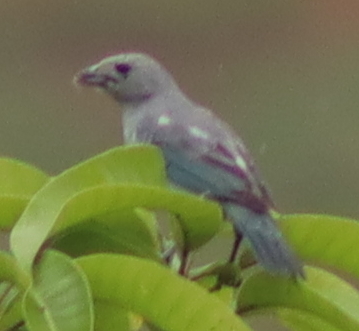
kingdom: Animalia
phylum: Chordata
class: Aves
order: Passeriformes
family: Thraupidae
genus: Thraupis
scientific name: Thraupis sayaca
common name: Sayaca tanager
